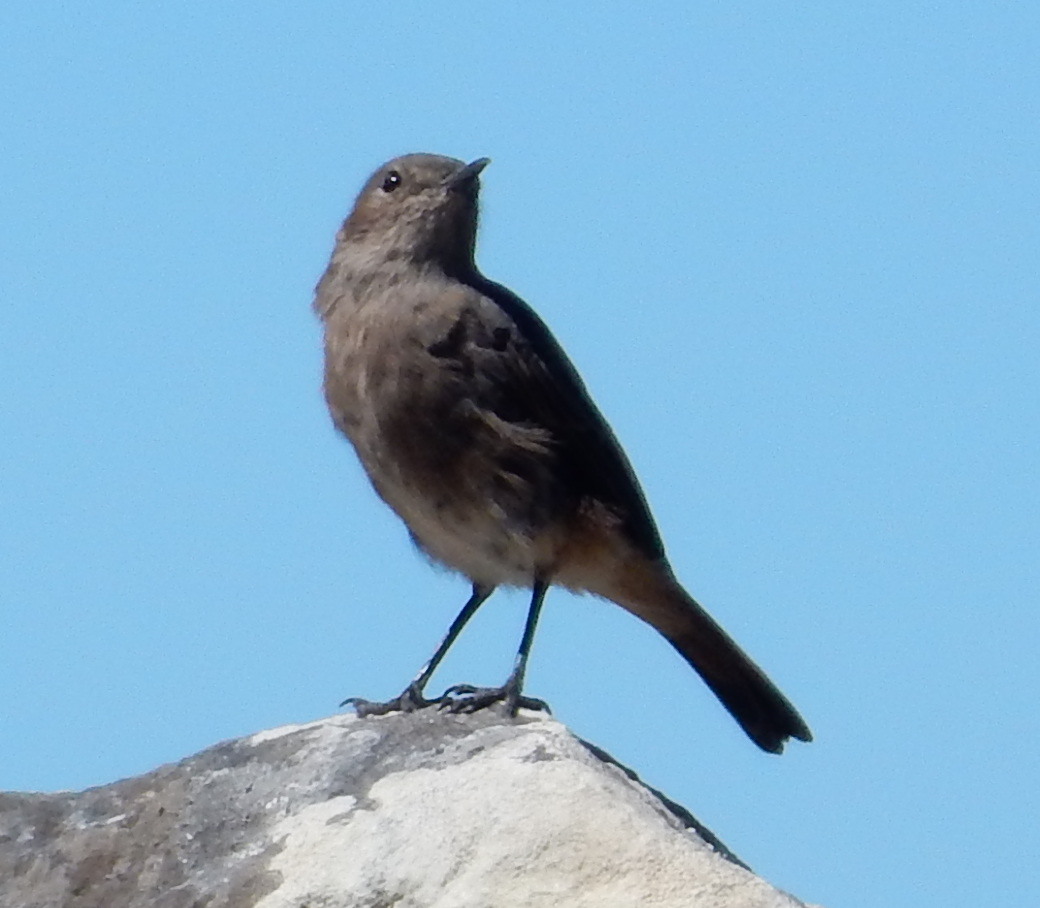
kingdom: Animalia
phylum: Chordata
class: Aves
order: Passeriformes
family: Muscicapidae
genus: Oenanthe
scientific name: Oenanthe familiaris
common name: Familiar chat
